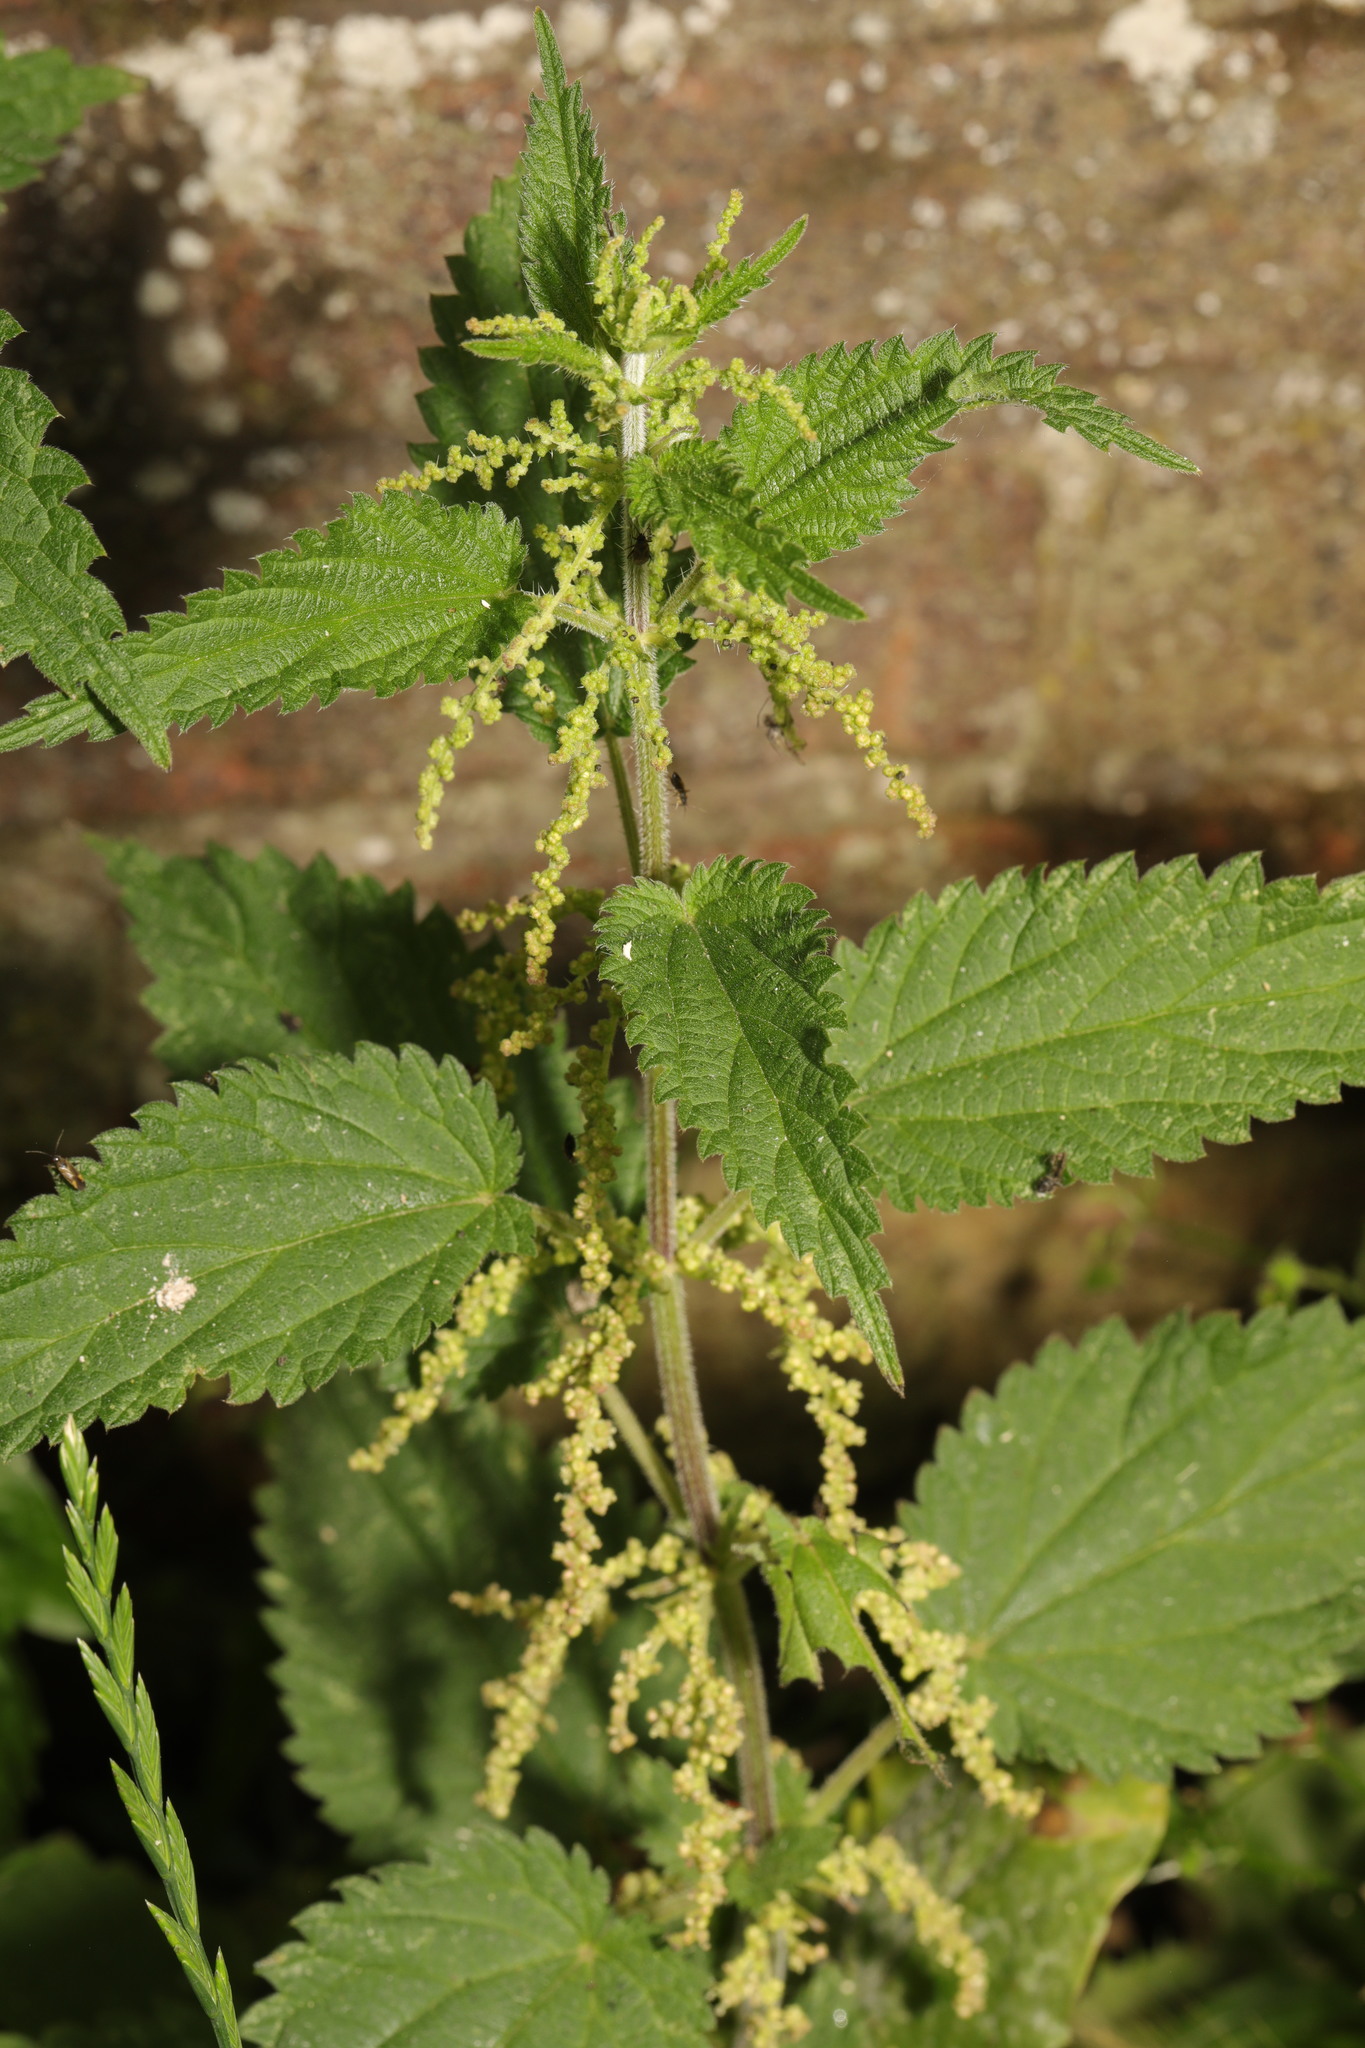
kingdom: Plantae
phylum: Tracheophyta
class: Magnoliopsida
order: Rosales
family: Urticaceae
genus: Urtica
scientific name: Urtica dioica
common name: Common nettle
